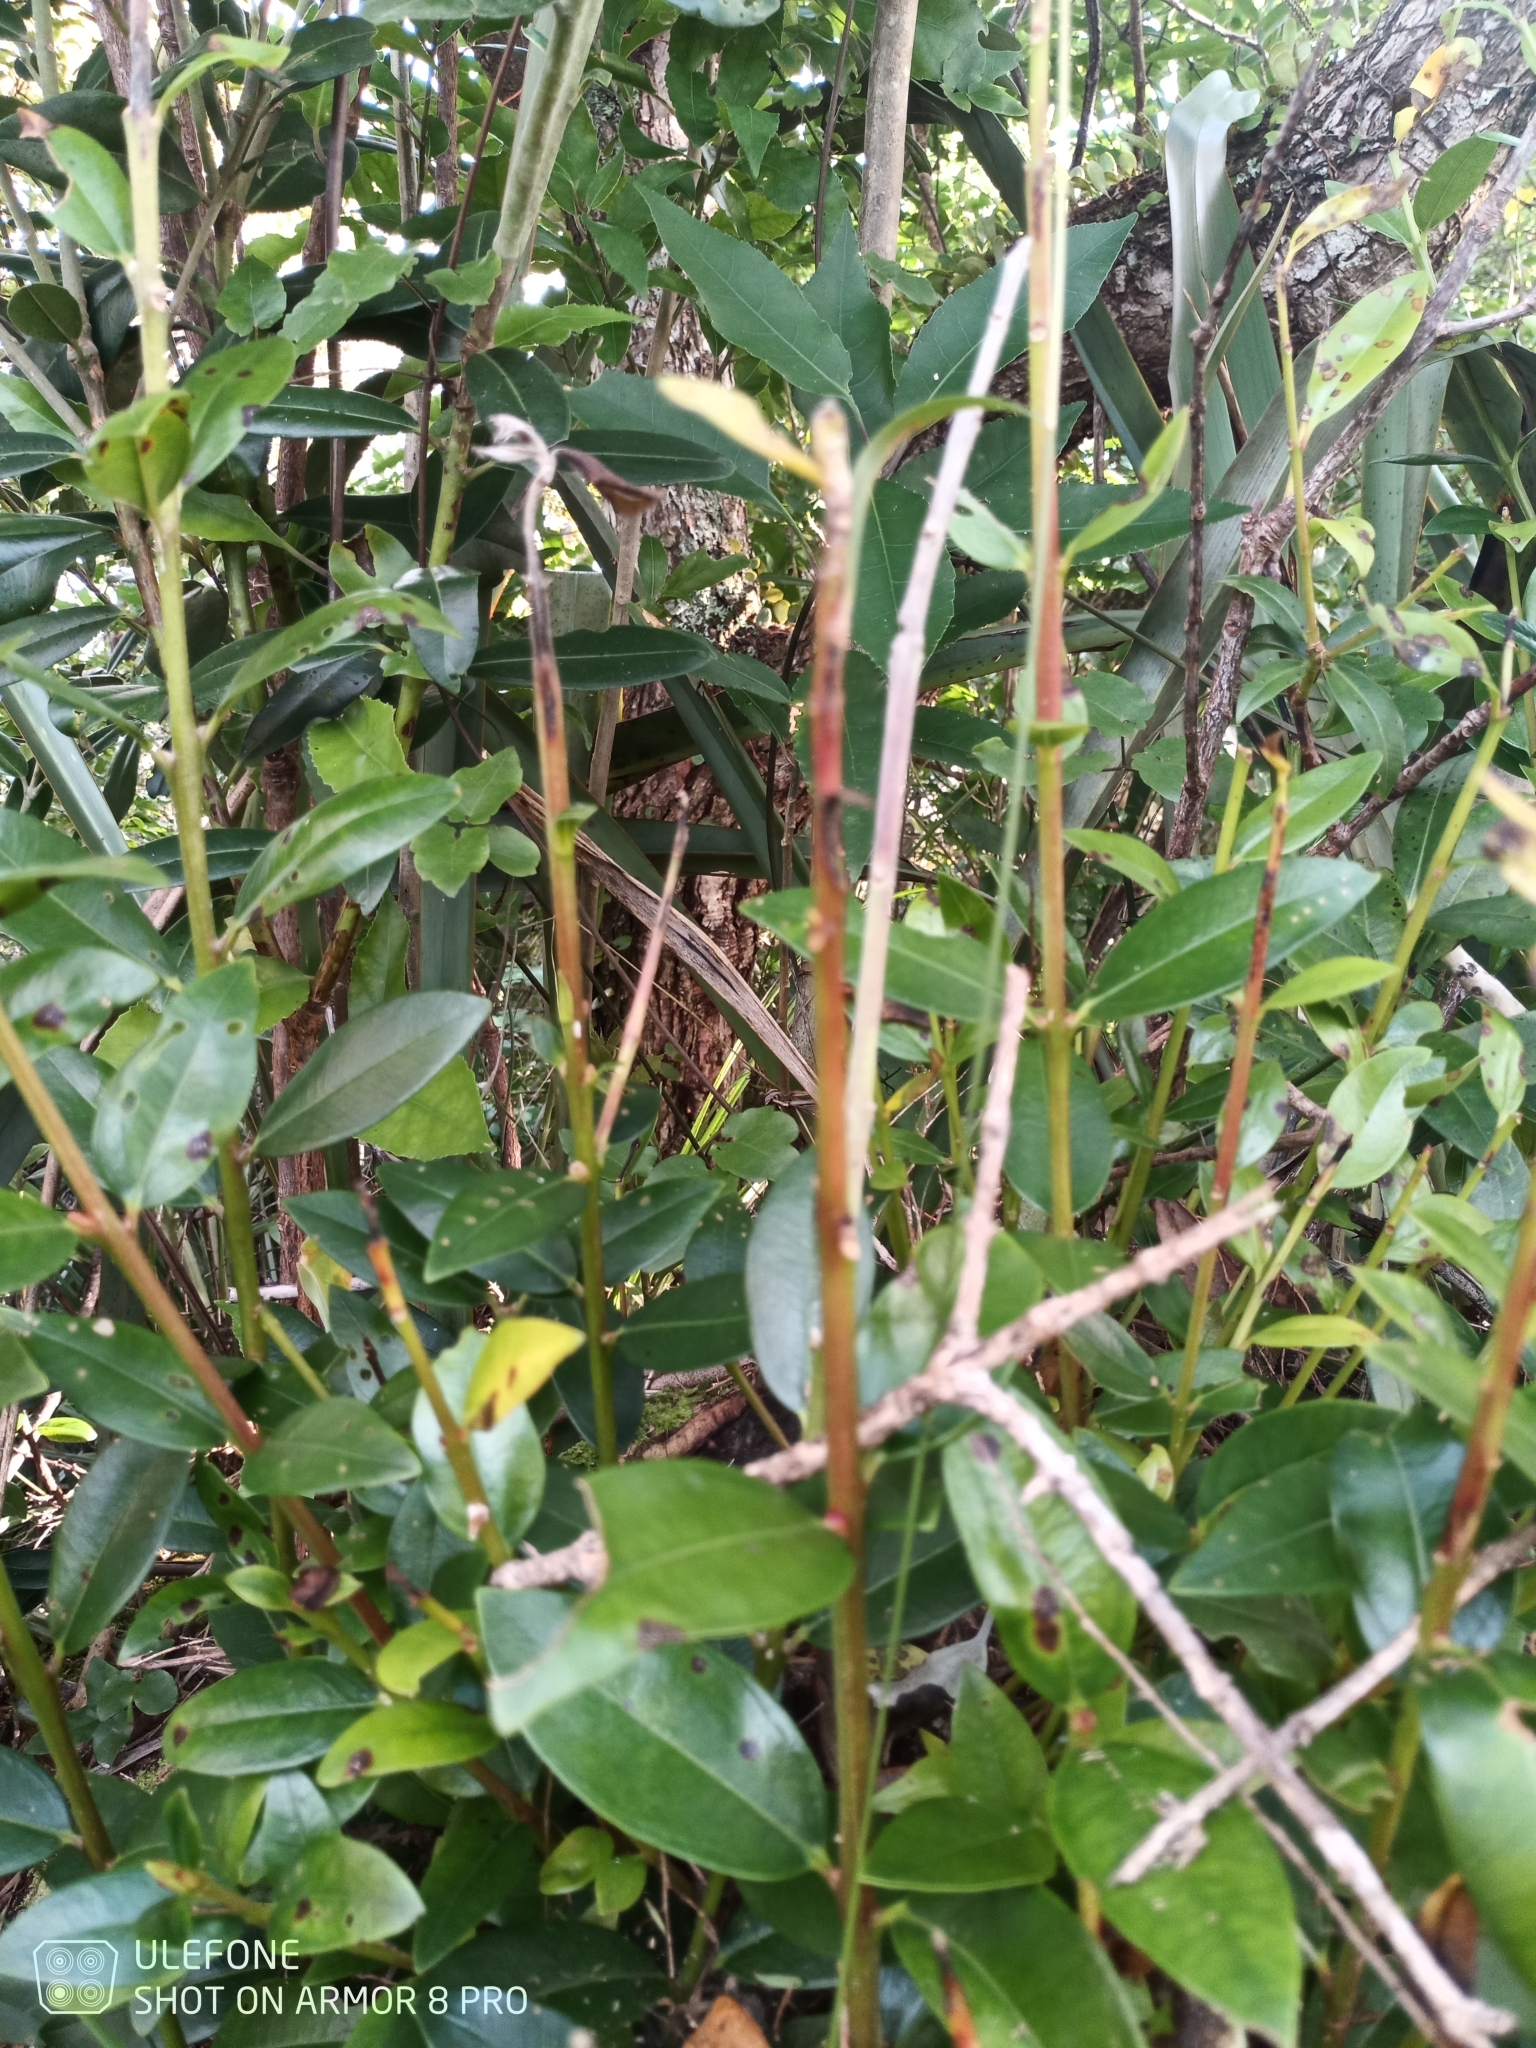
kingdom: Fungi
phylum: Basidiomycota
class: Pucciniomycetes
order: Pucciniales
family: Sphaerophragmiaceae
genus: Austropuccinia
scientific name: Austropuccinia psidii
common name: Myrtle rust
